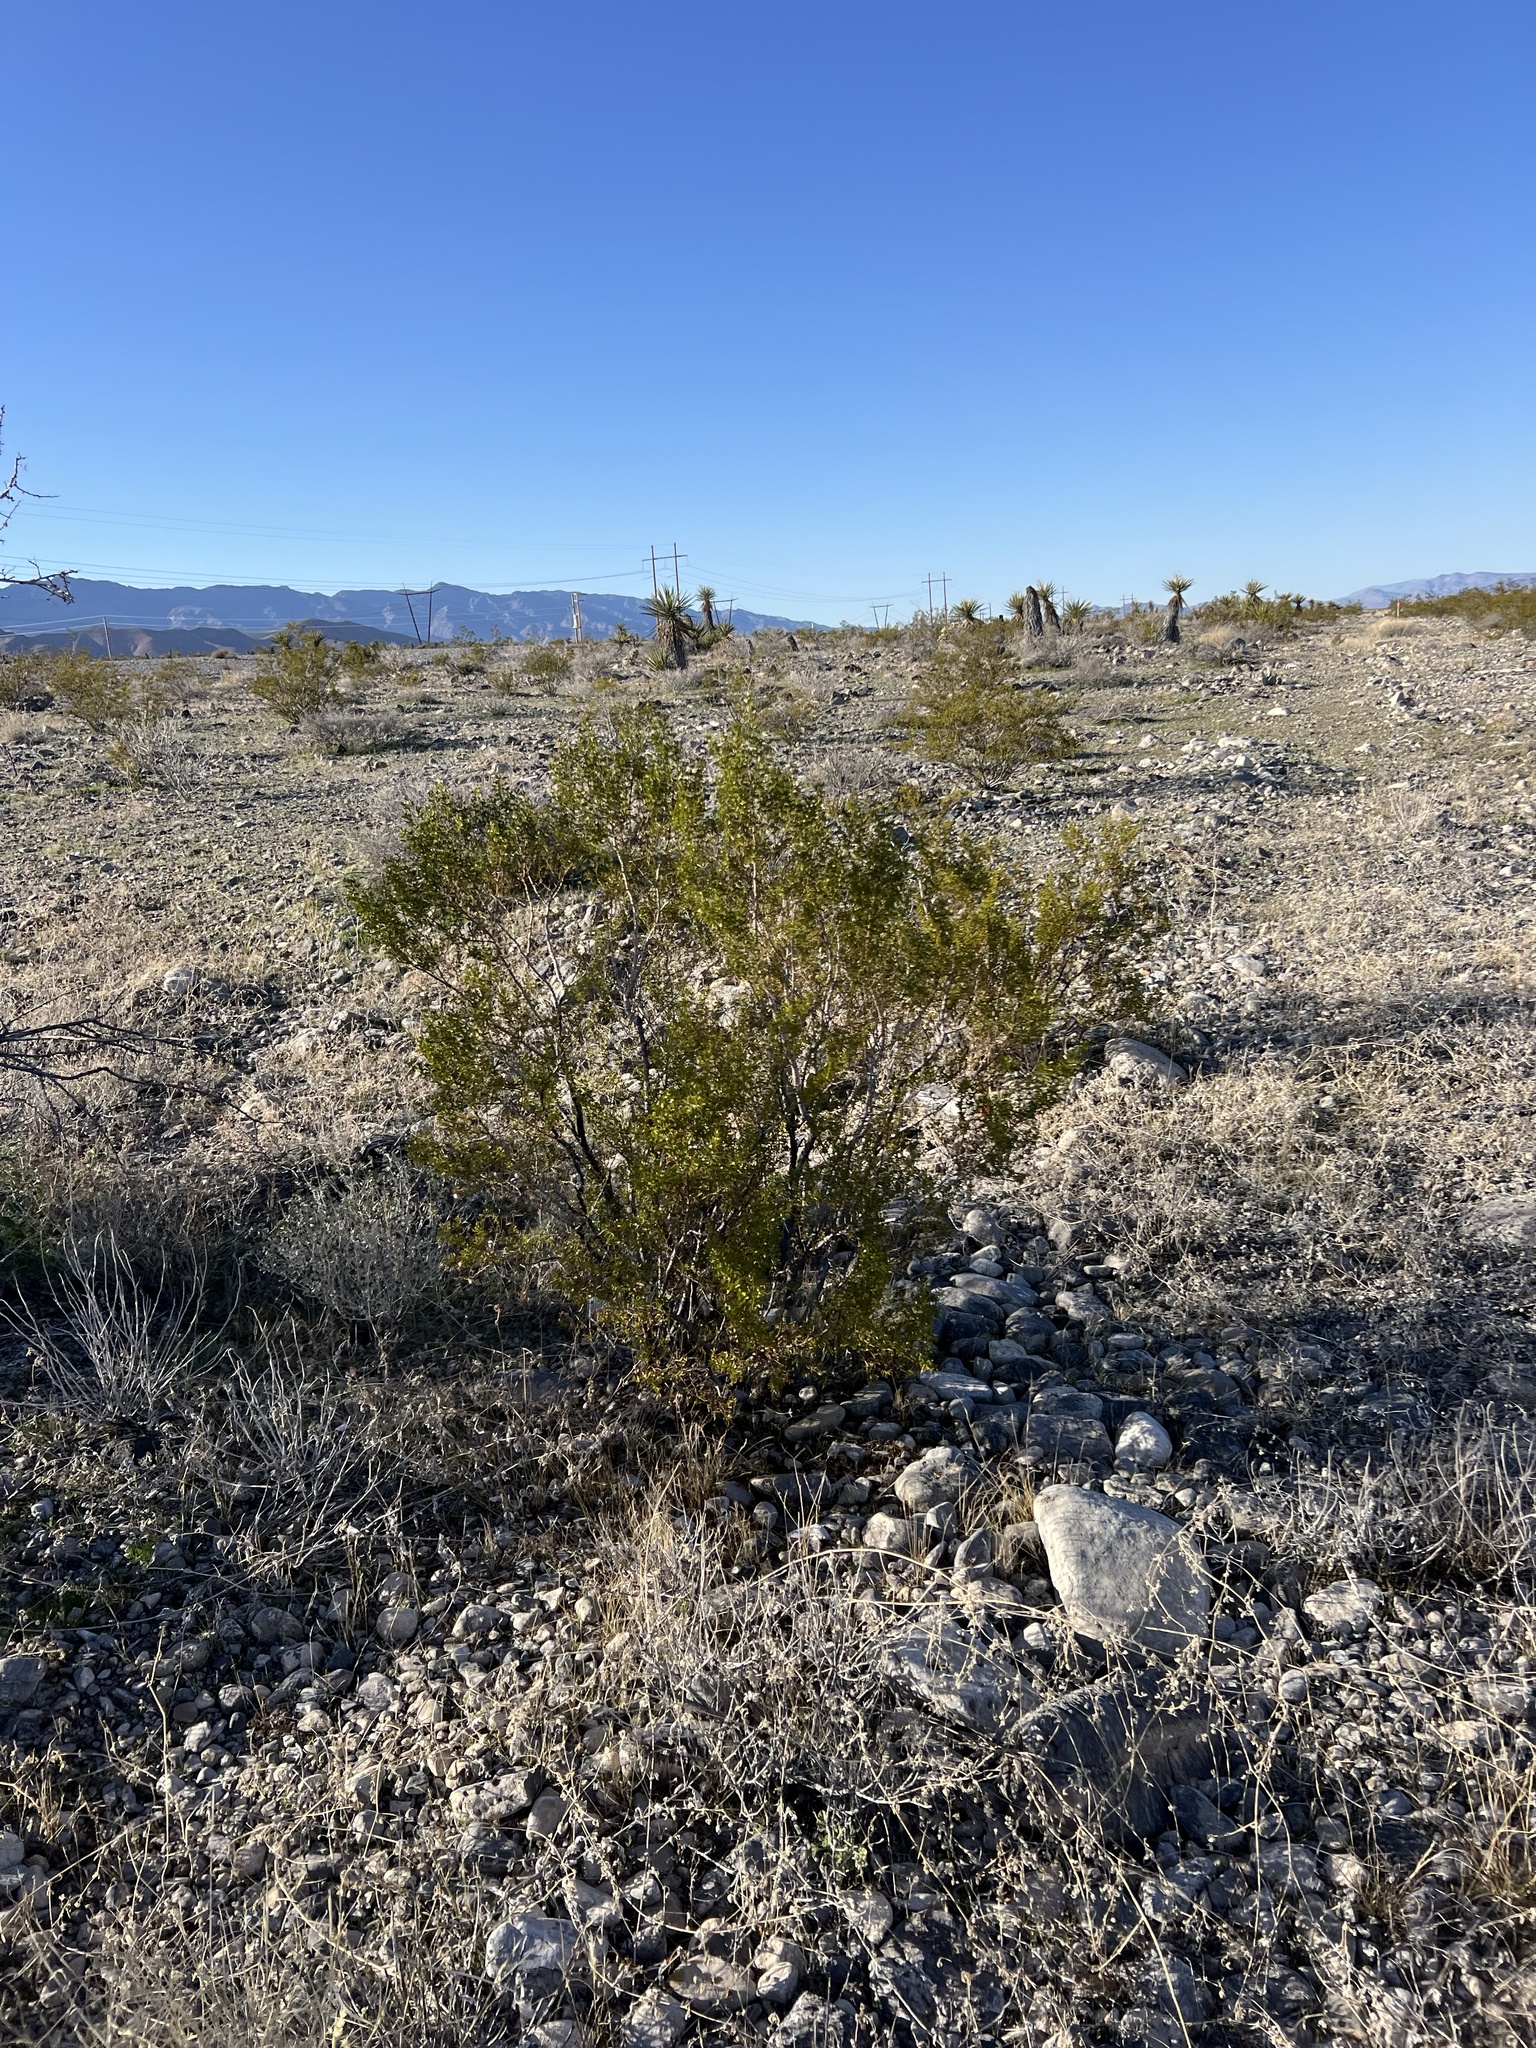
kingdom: Plantae
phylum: Tracheophyta
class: Magnoliopsida
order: Zygophyllales
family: Zygophyllaceae
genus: Larrea
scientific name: Larrea tridentata
